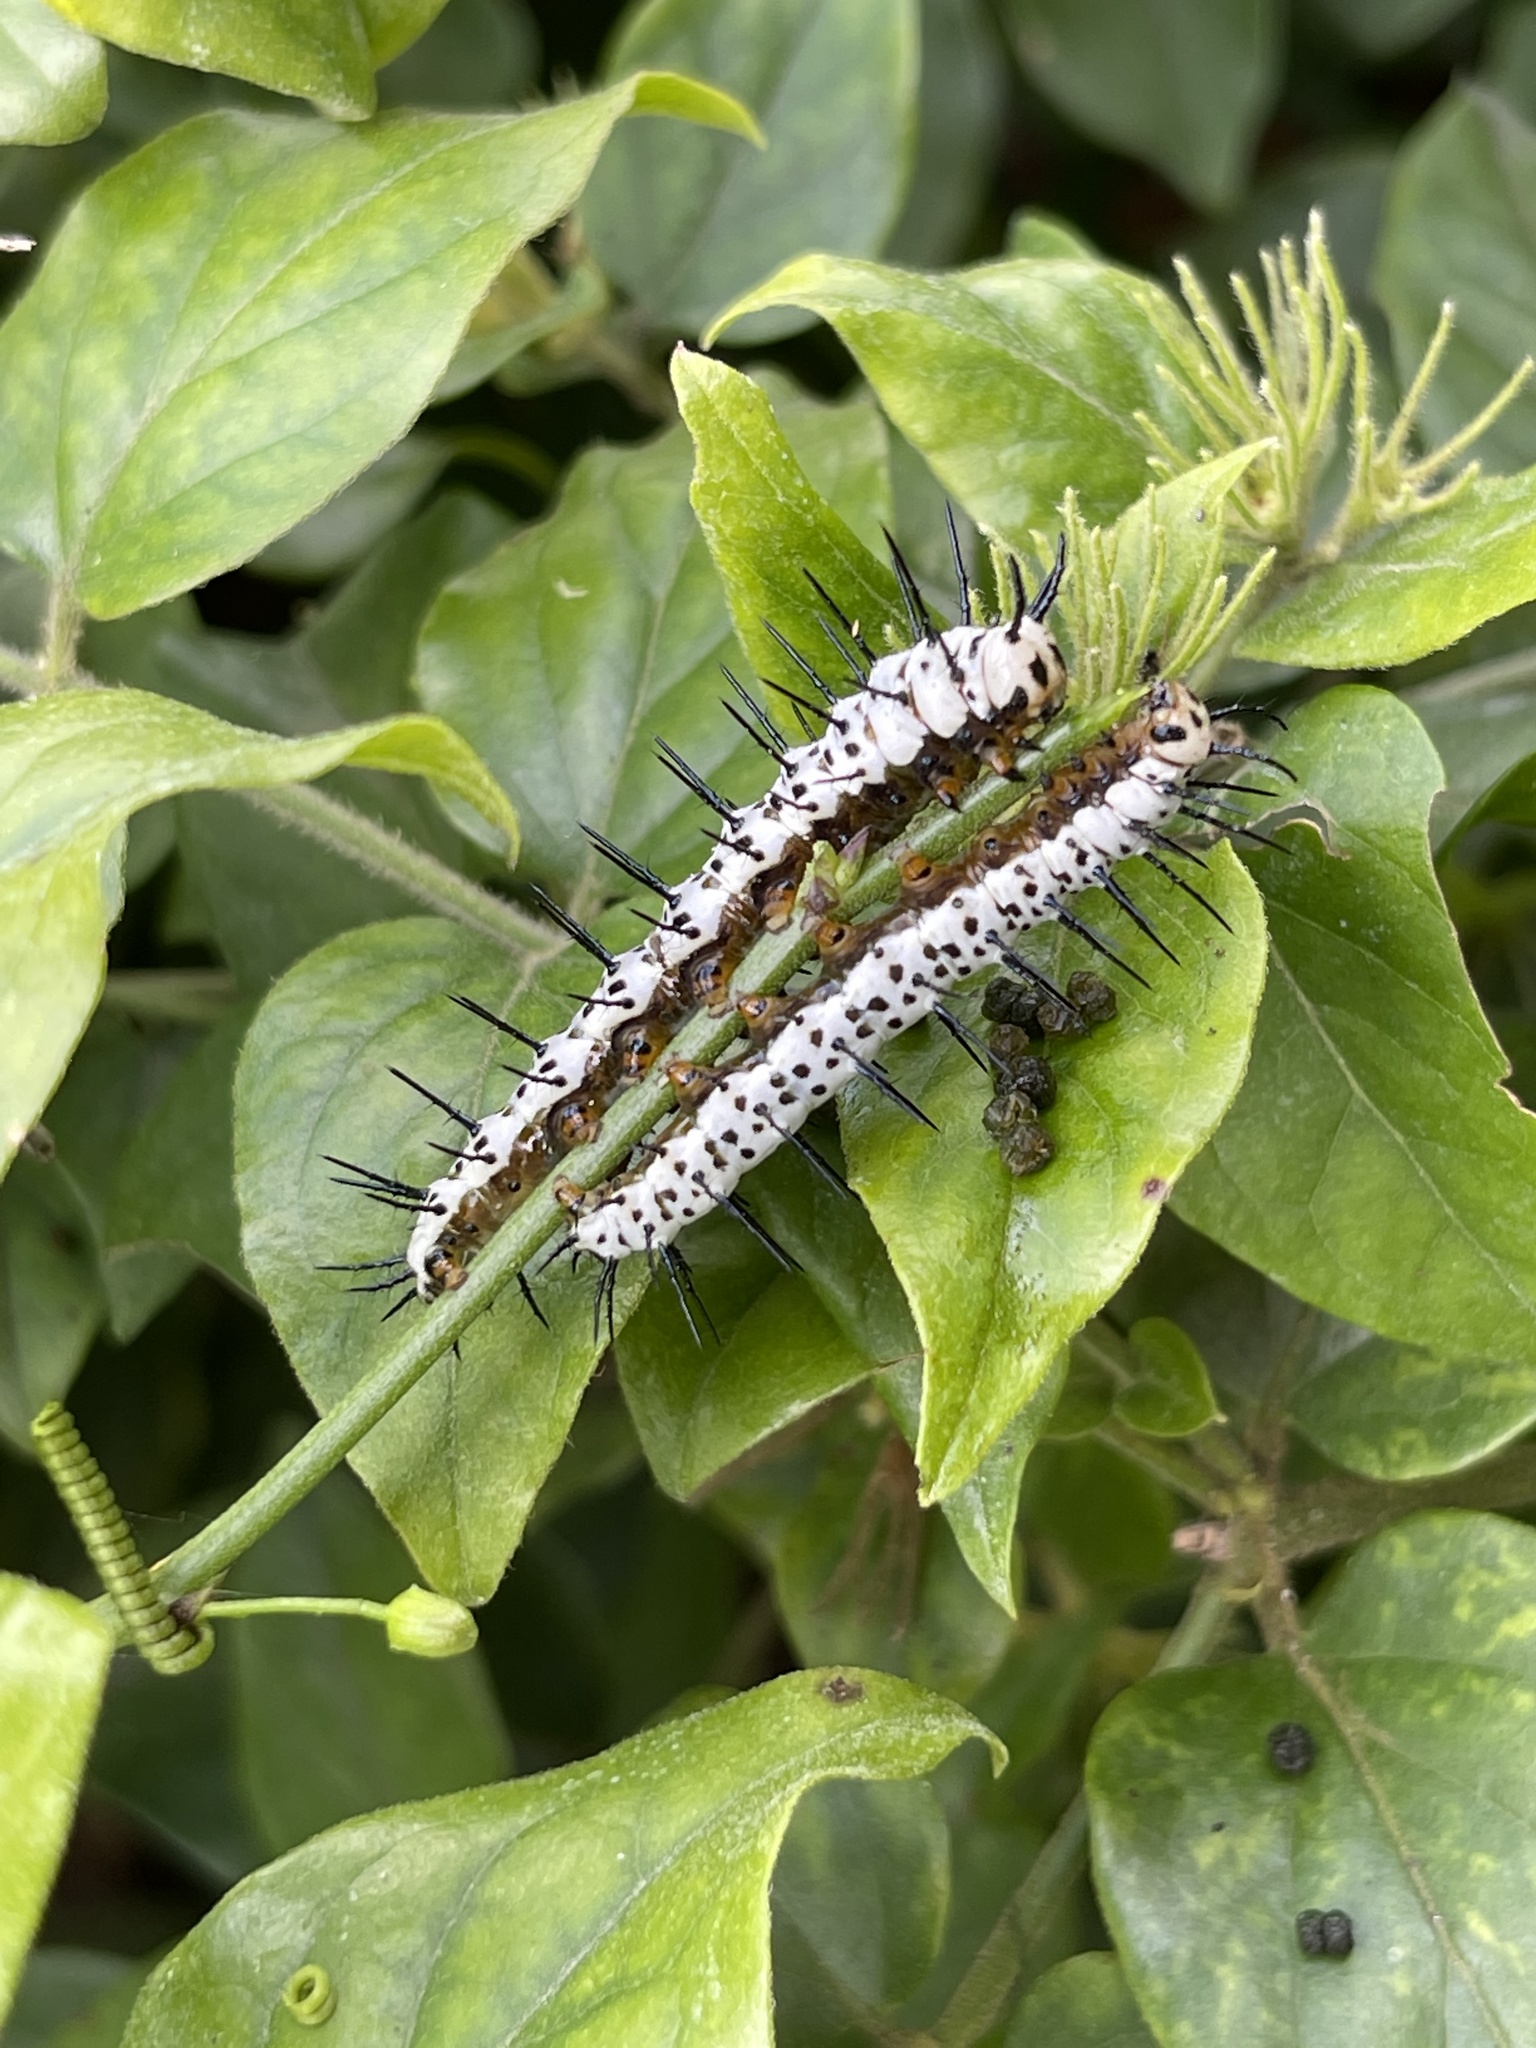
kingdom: Animalia
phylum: Arthropoda
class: Insecta
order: Lepidoptera
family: Nymphalidae
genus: Heliconius
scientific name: Heliconius charithonia
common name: Zebra long wing
